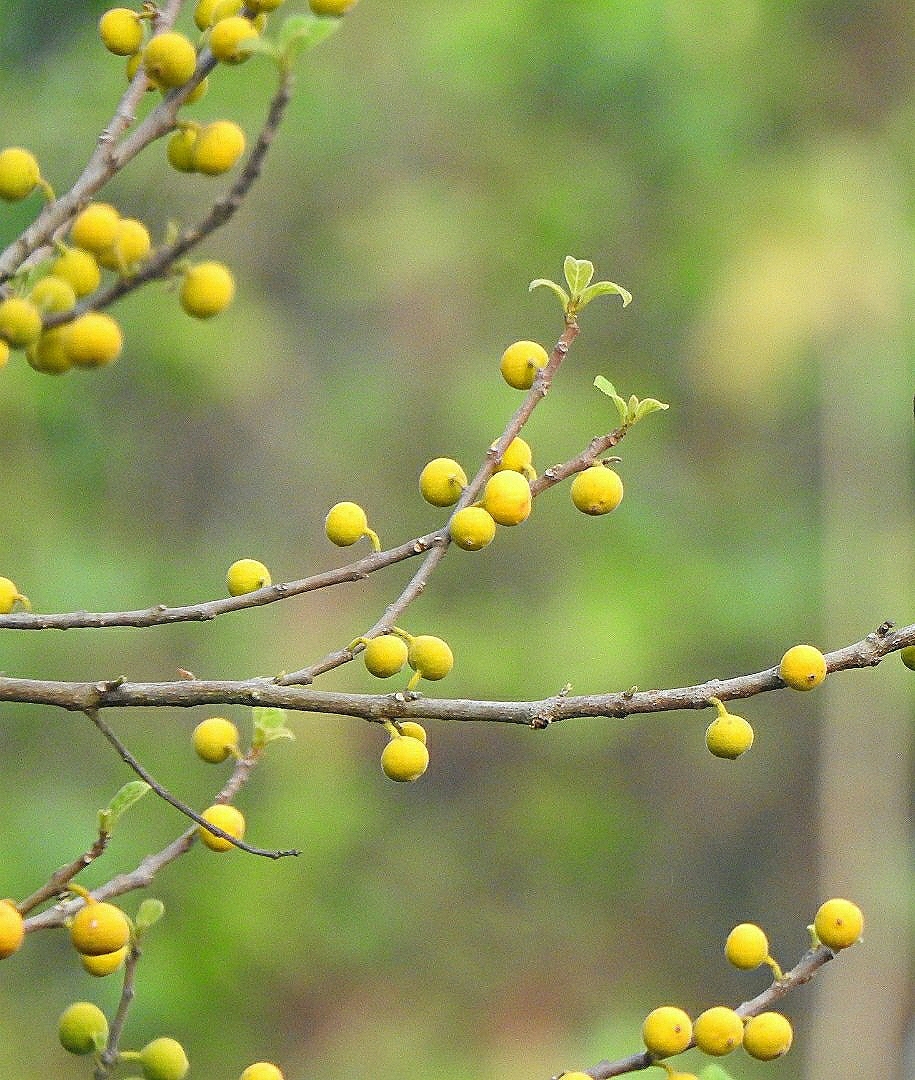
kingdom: Plantae
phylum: Tracheophyta
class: Magnoliopsida
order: Rosales
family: Moraceae
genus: Ficus
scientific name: Ficus exasperata
